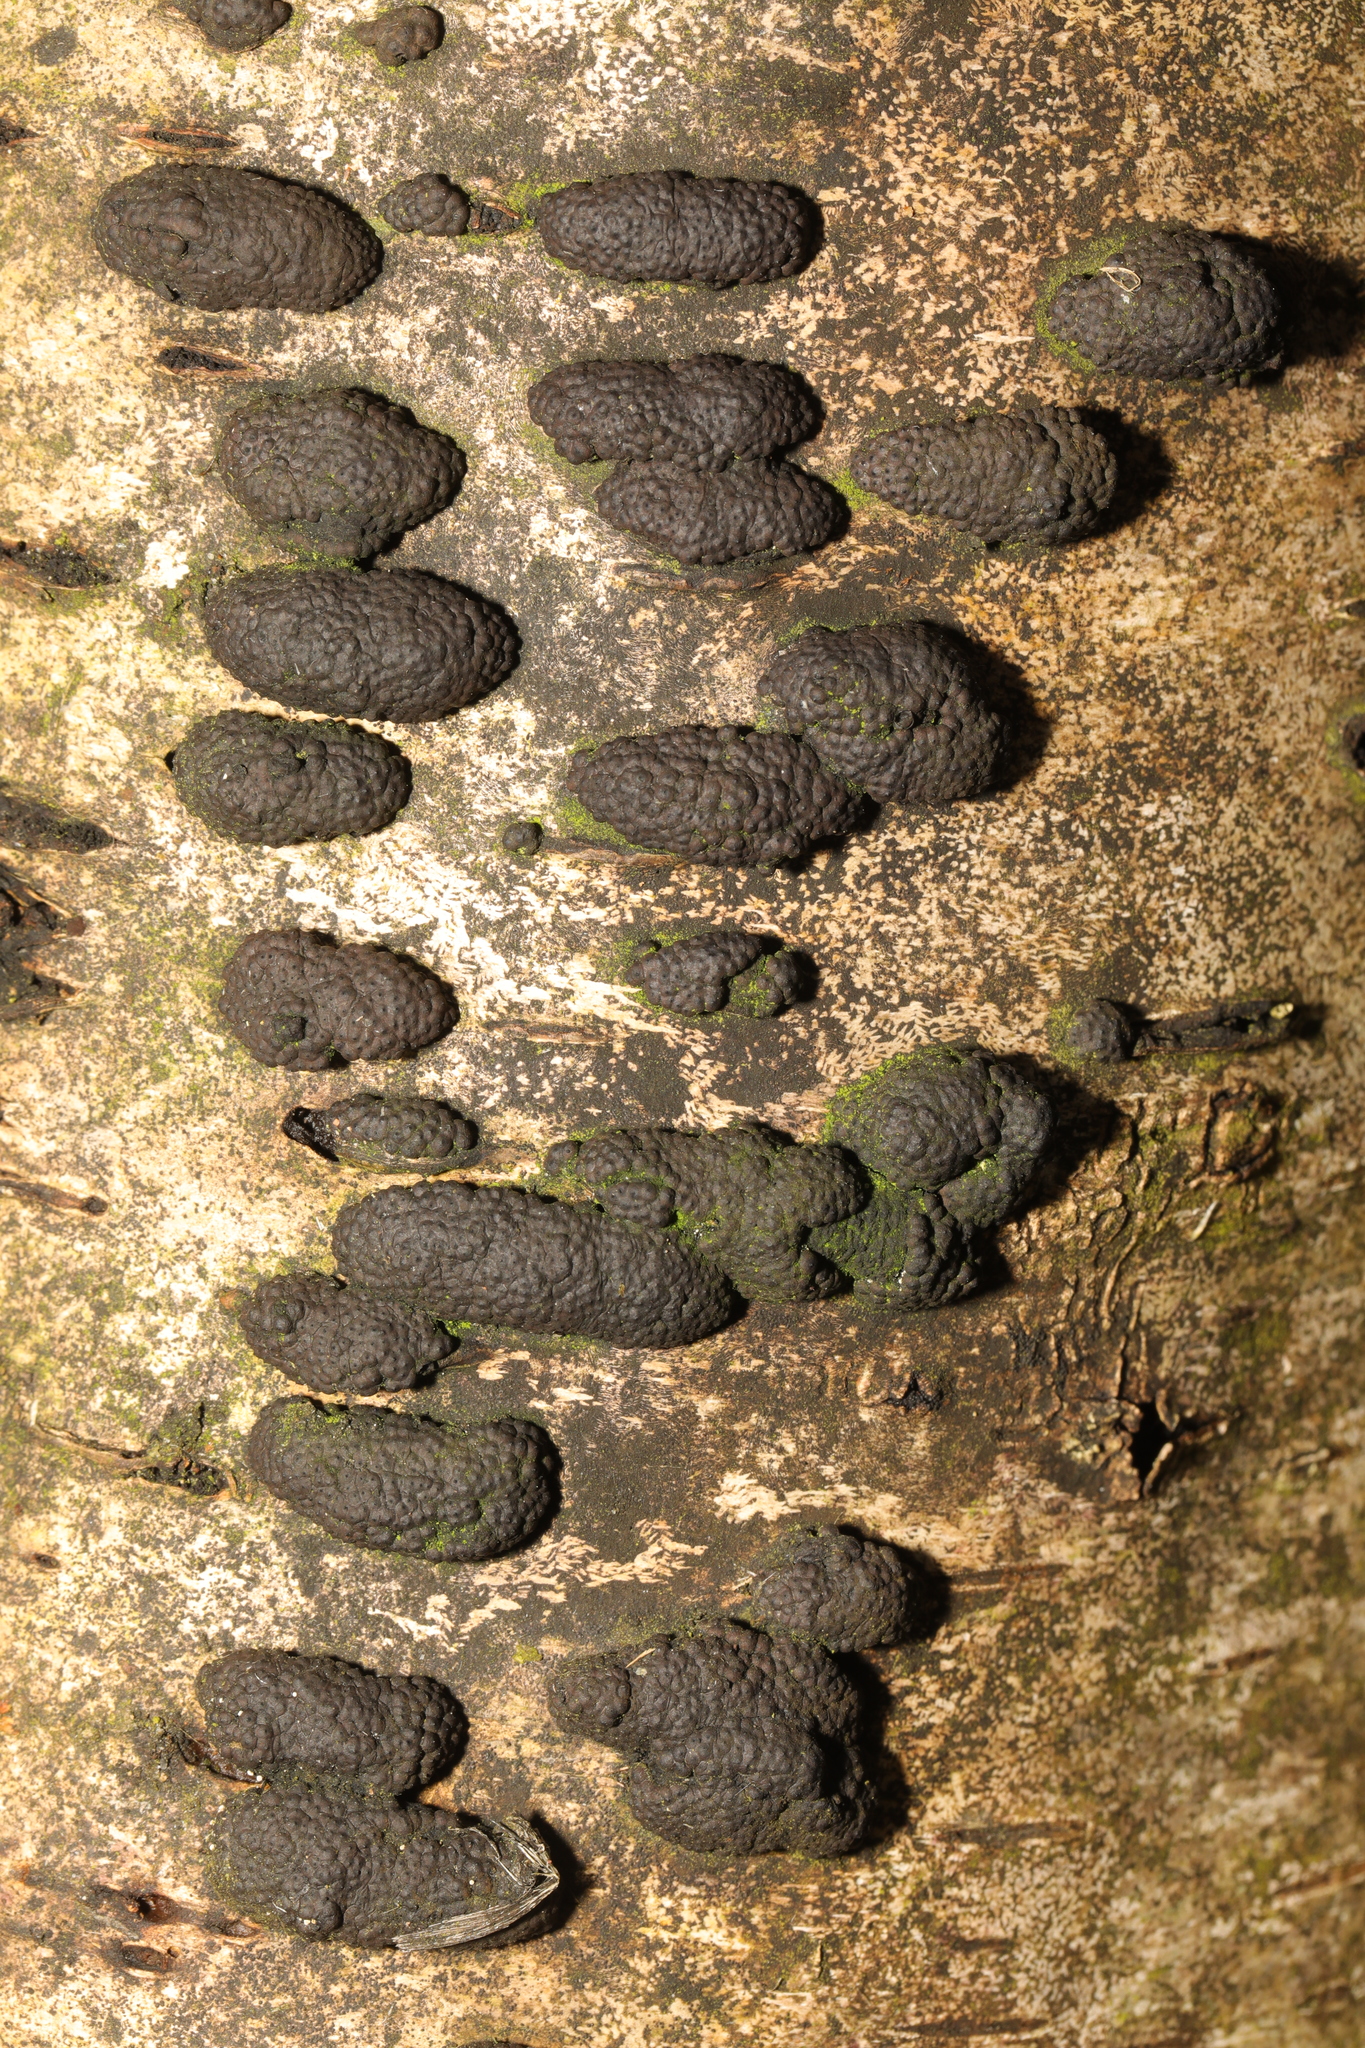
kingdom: Fungi
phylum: Ascomycota
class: Sordariomycetes
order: Xylariales
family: Hypoxylaceae
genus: Jackrogersella
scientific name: Jackrogersella multiformis
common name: Birch woodwart
